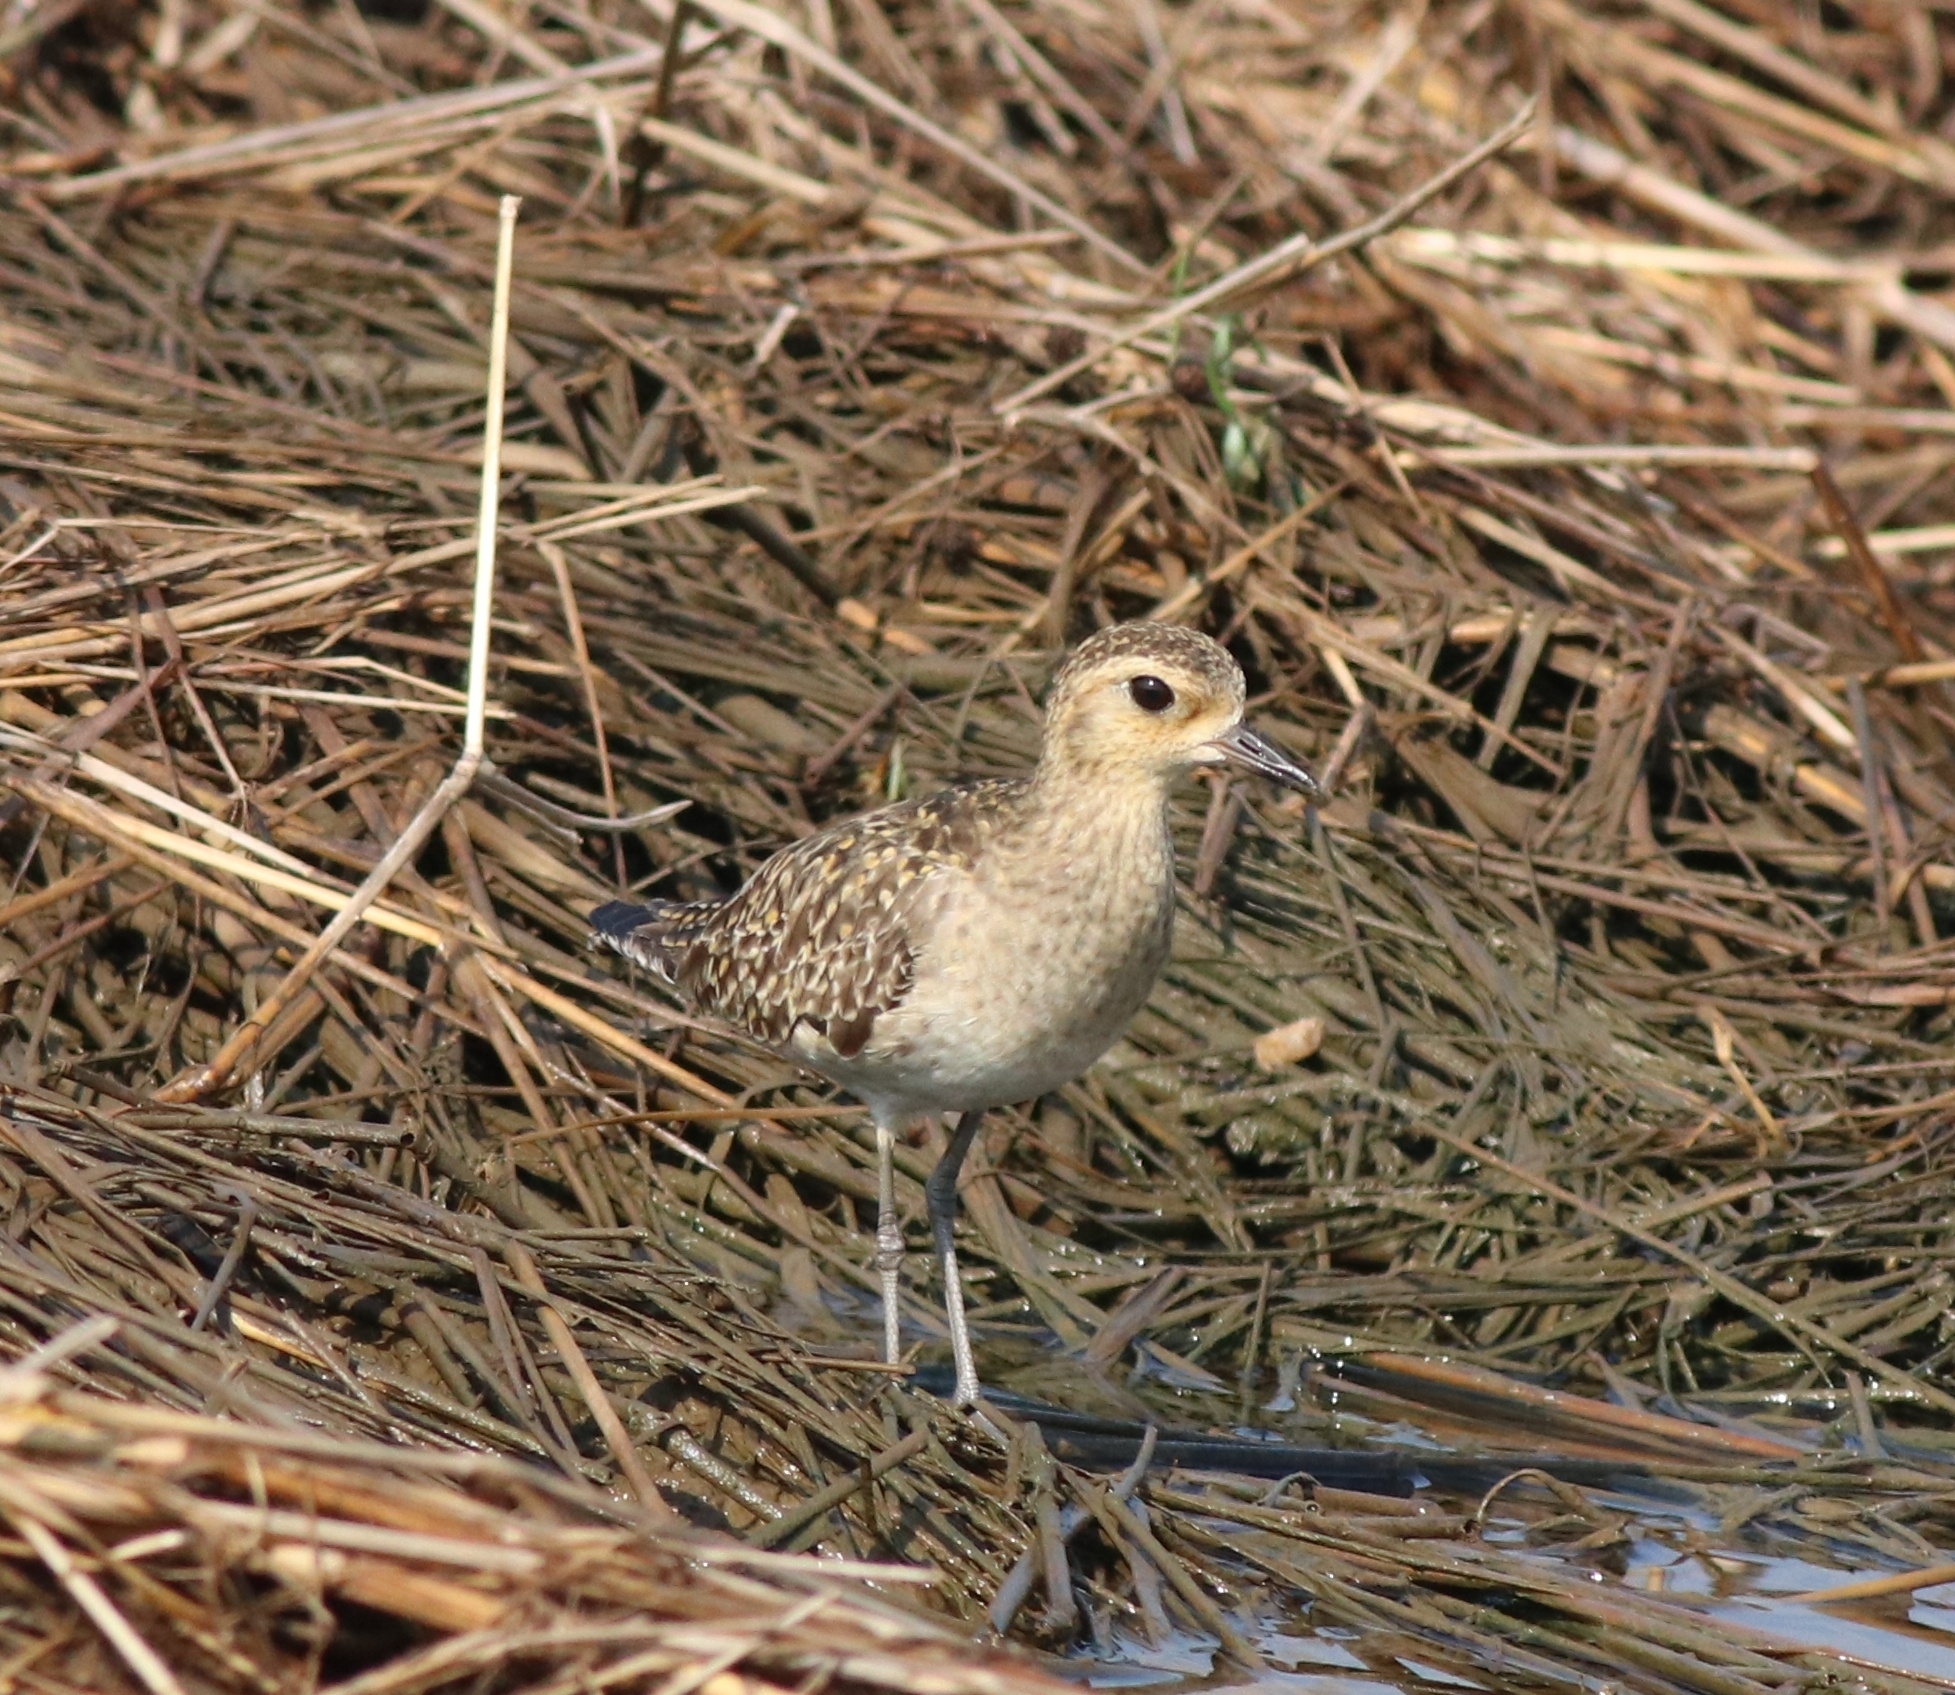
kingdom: Animalia
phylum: Chordata
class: Aves
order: Charadriiformes
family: Charadriidae
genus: Pluvialis
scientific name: Pluvialis fulva
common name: Pacific golden plover
